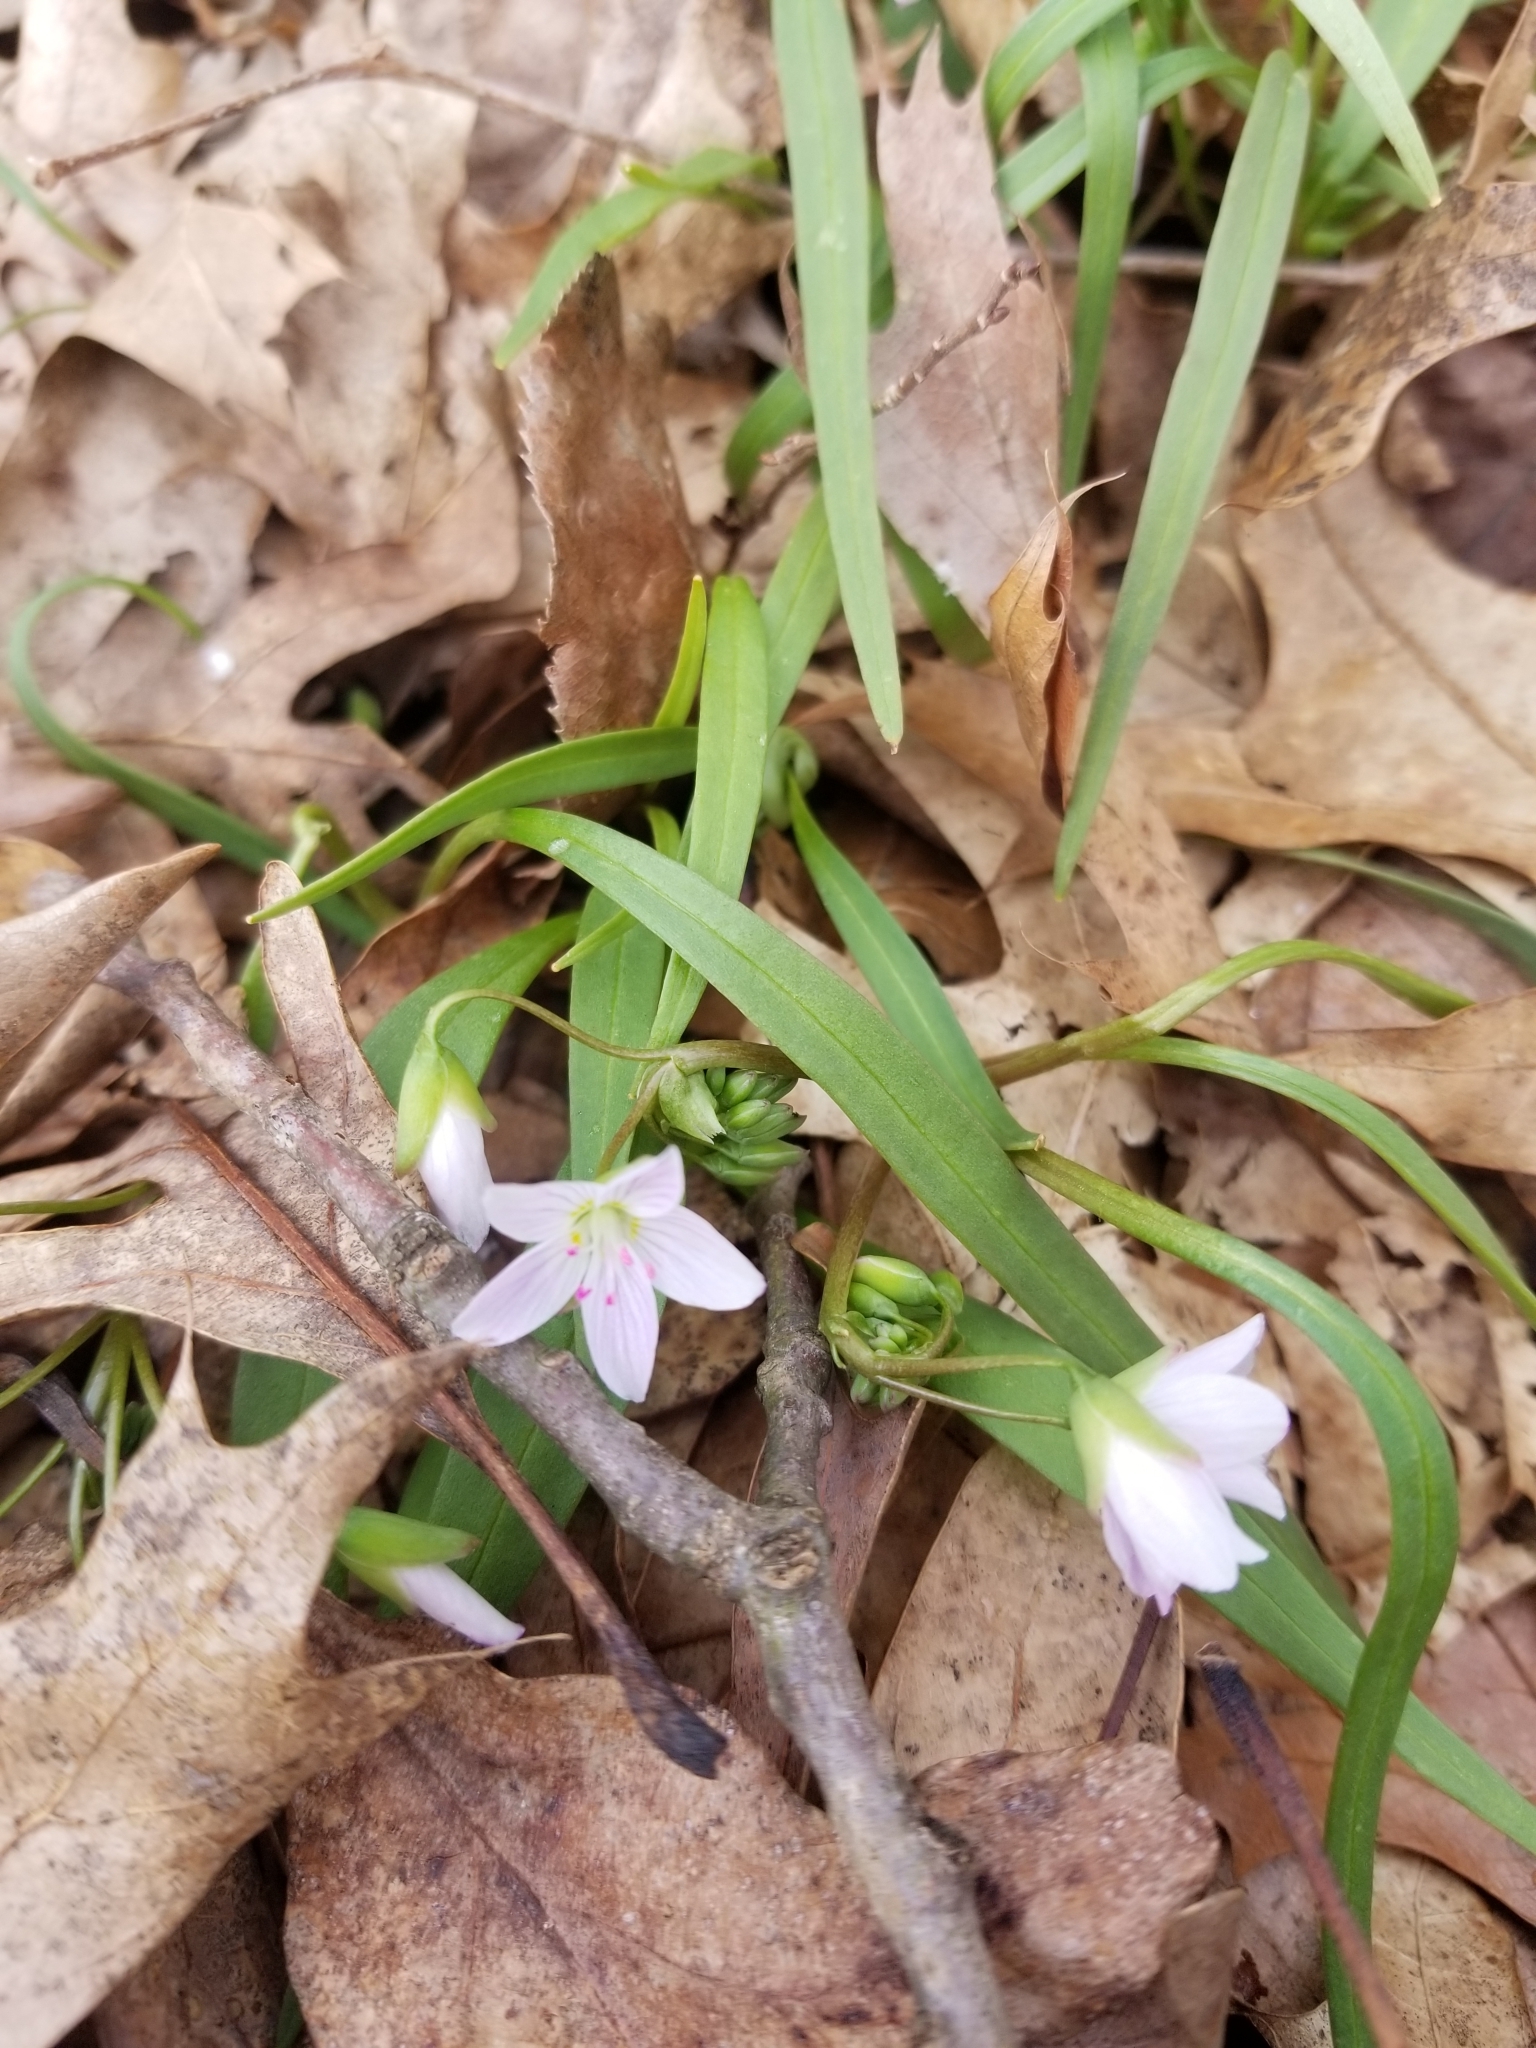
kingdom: Plantae
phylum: Tracheophyta
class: Magnoliopsida
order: Caryophyllales
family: Montiaceae
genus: Claytonia
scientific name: Claytonia virginica
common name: Virginia springbeauty
